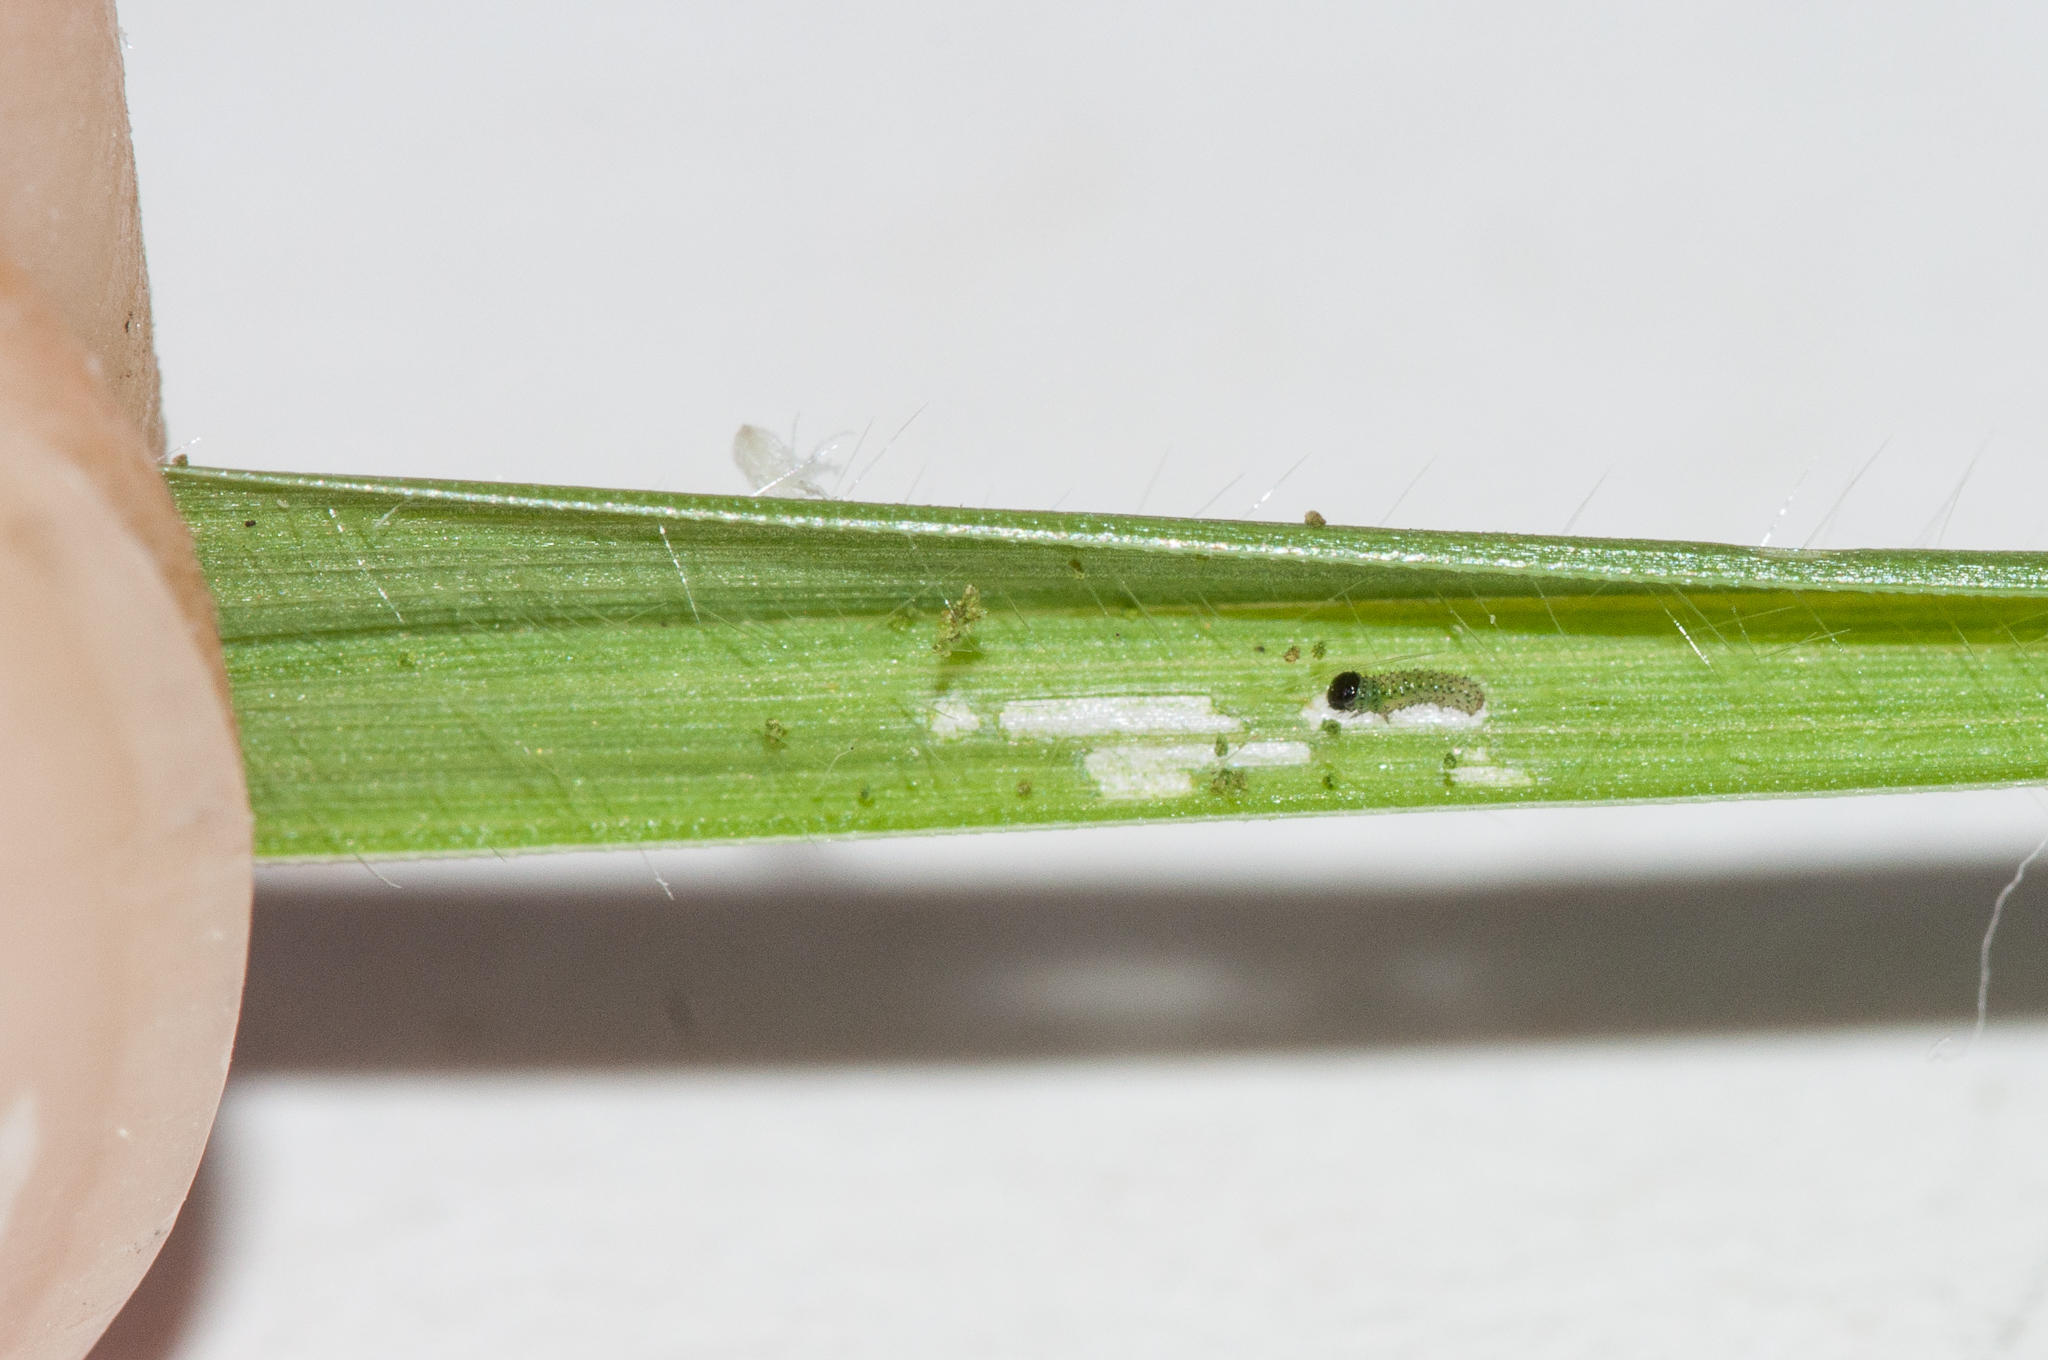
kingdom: Animalia
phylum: Arthropoda
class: Insecta
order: Lepidoptera
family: Noctuidae
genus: Agrotis
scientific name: Agrotis crassilinea
